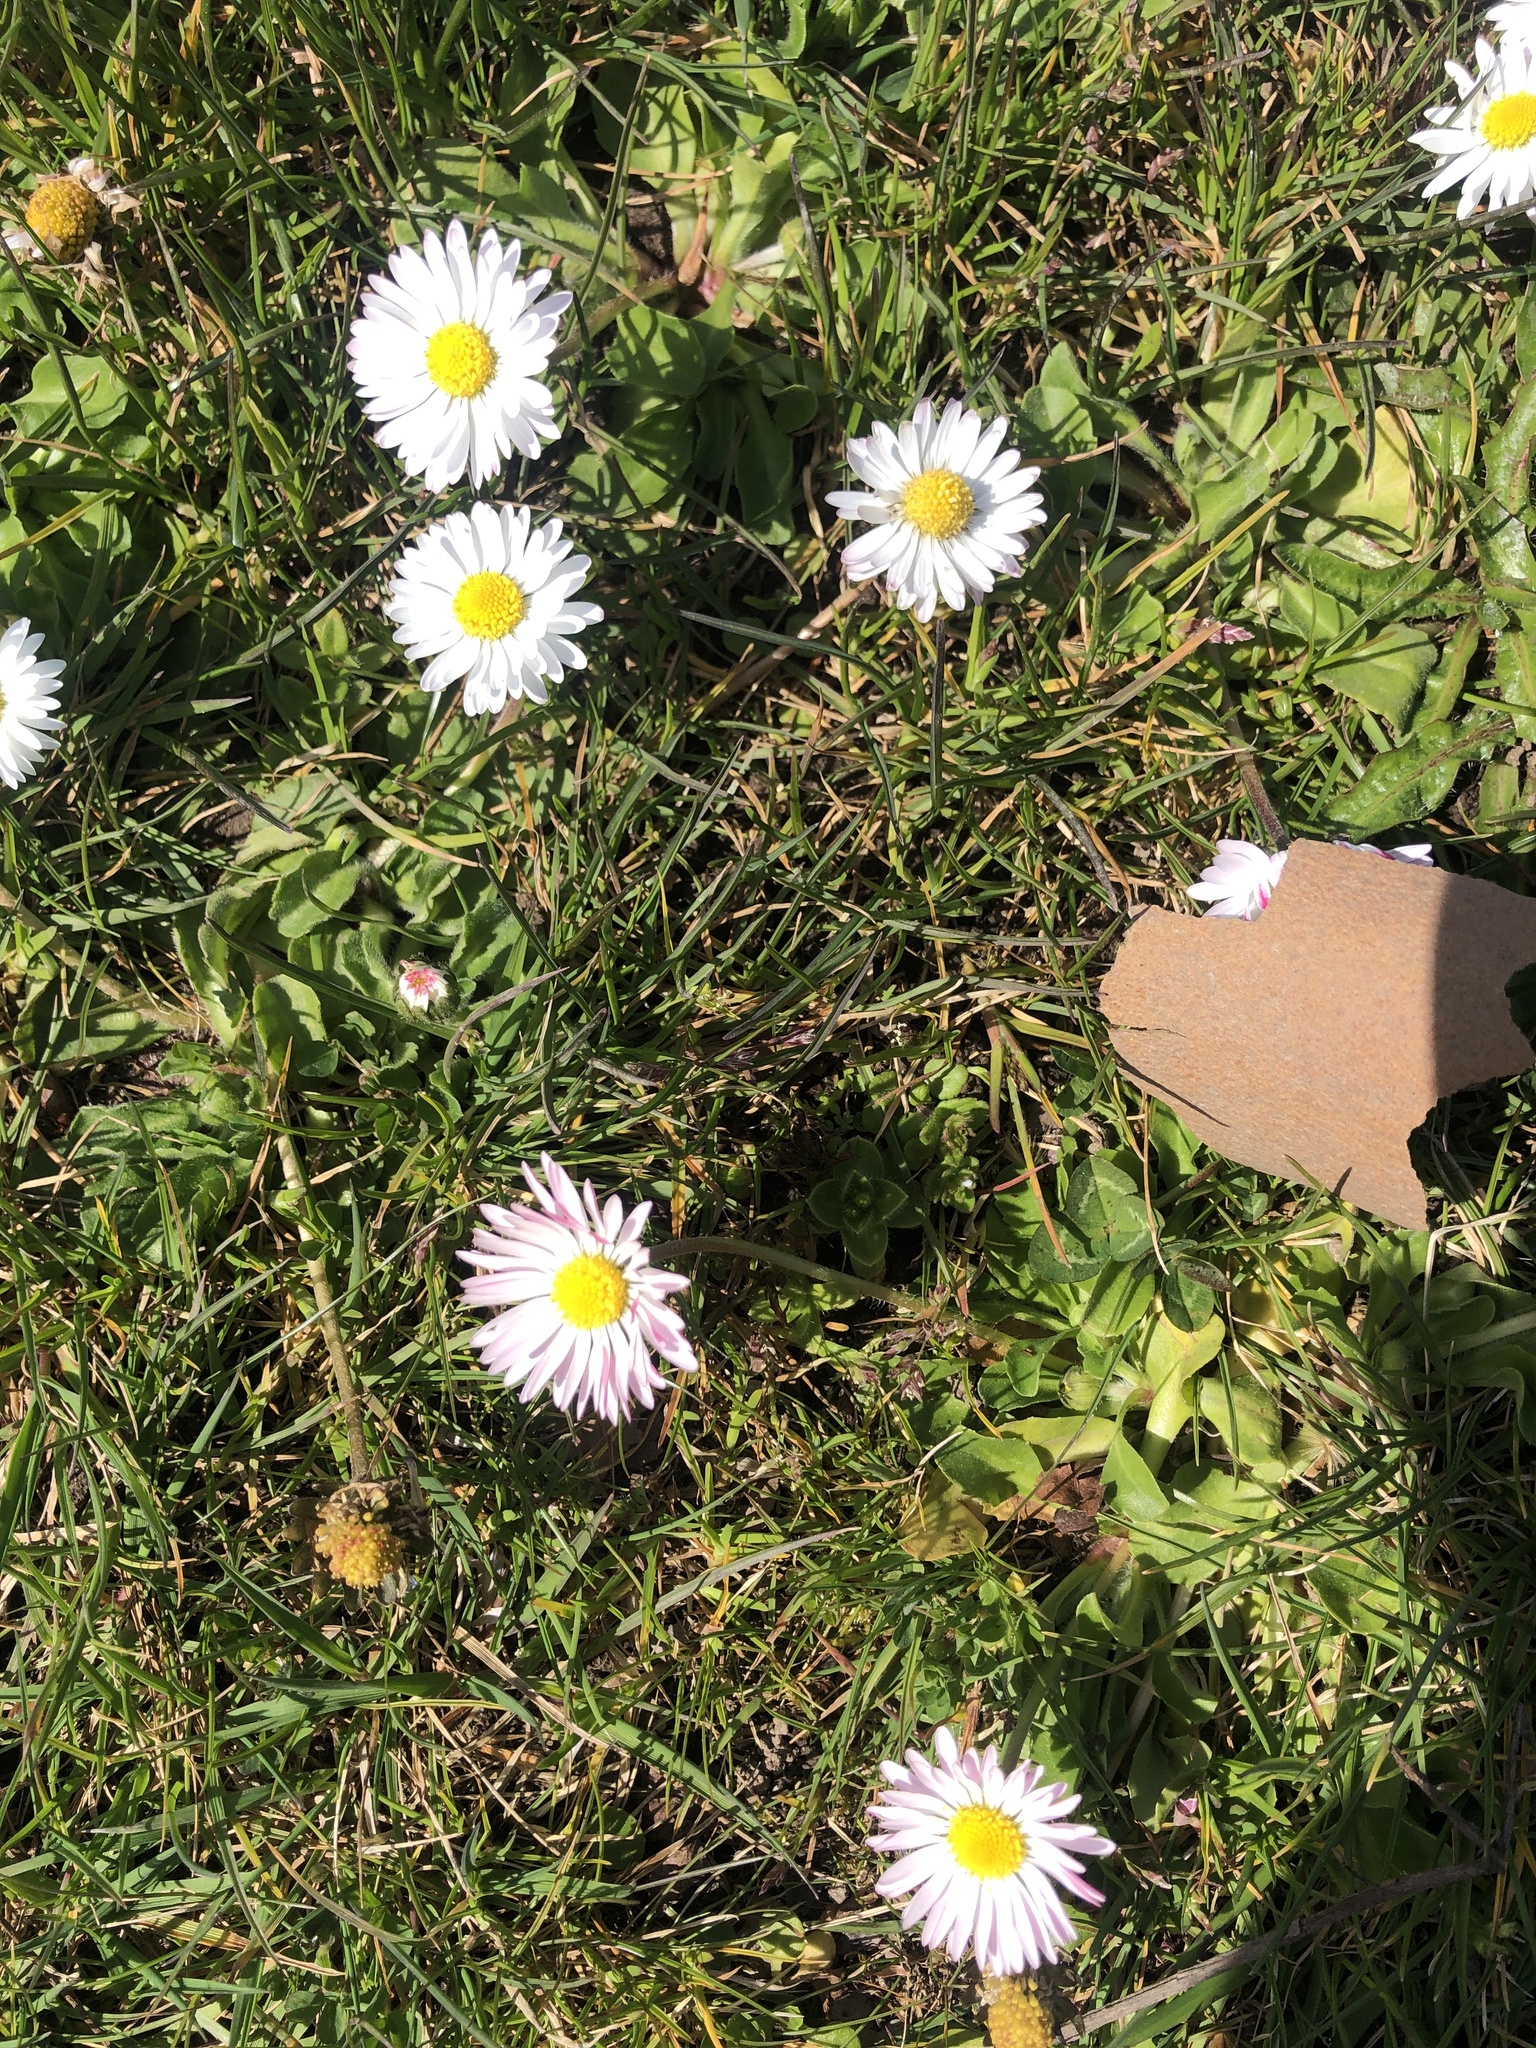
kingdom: Plantae
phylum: Tracheophyta
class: Magnoliopsida
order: Asterales
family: Asteraceae
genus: Bellis
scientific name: Bellis perennis
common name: Lawndaisy
